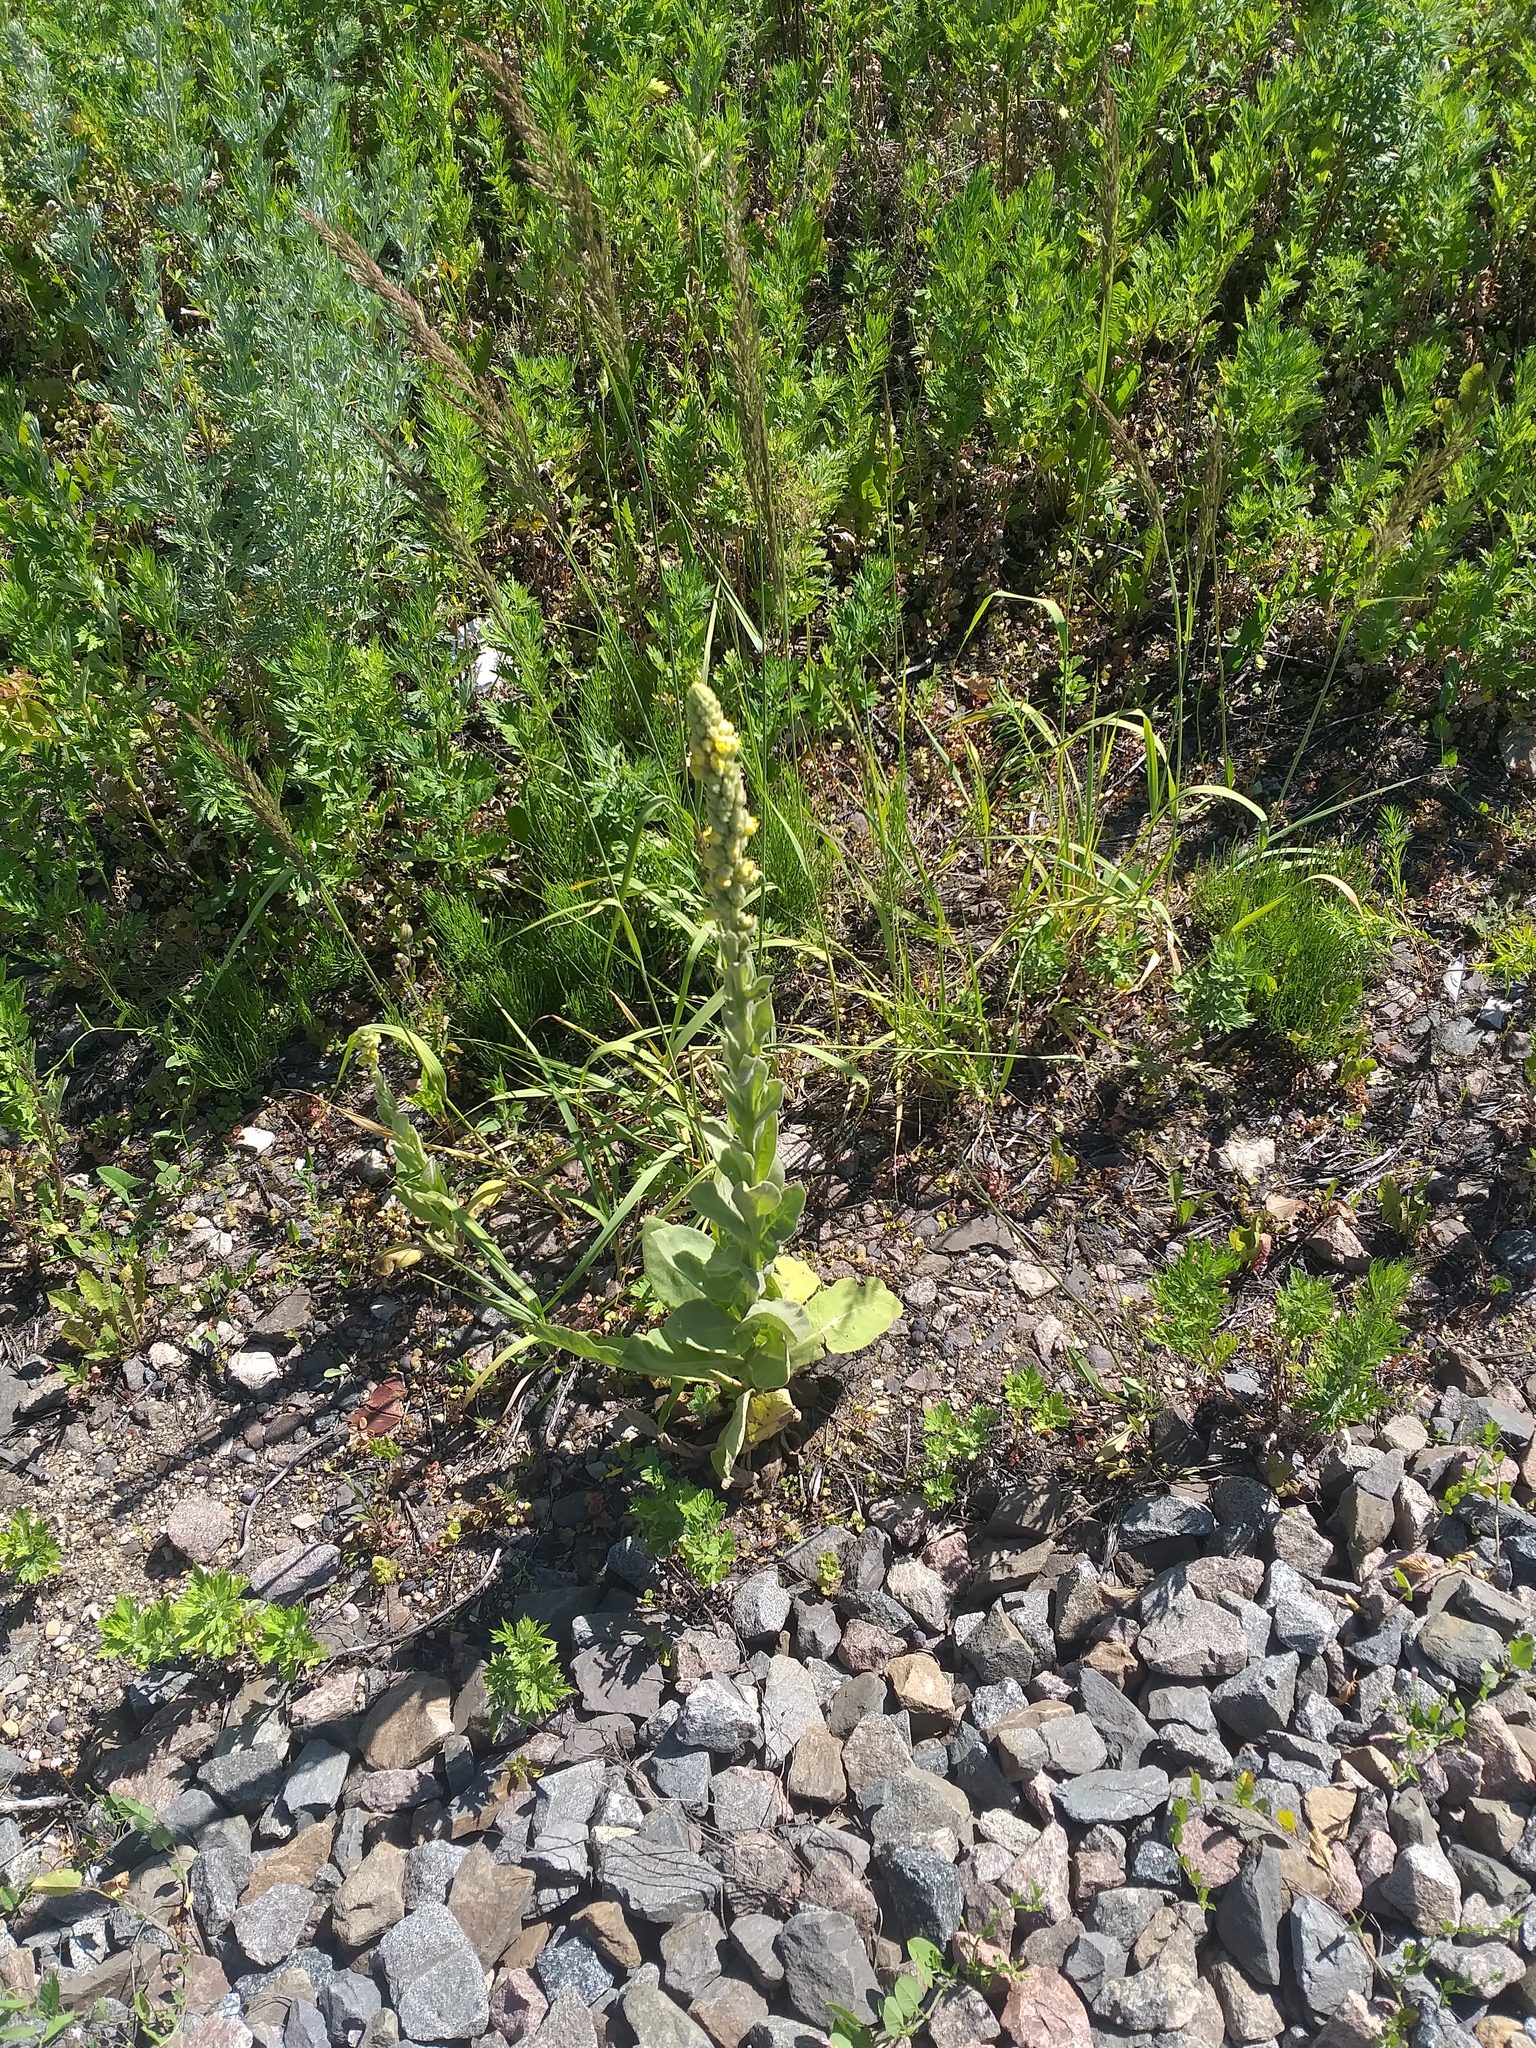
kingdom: Plantae
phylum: Tracheophyta
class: Magnoliopsida
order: Lamiales
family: Scrophulariaceae
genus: Verbascum
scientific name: Verbascum thapsus
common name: Common mullein
